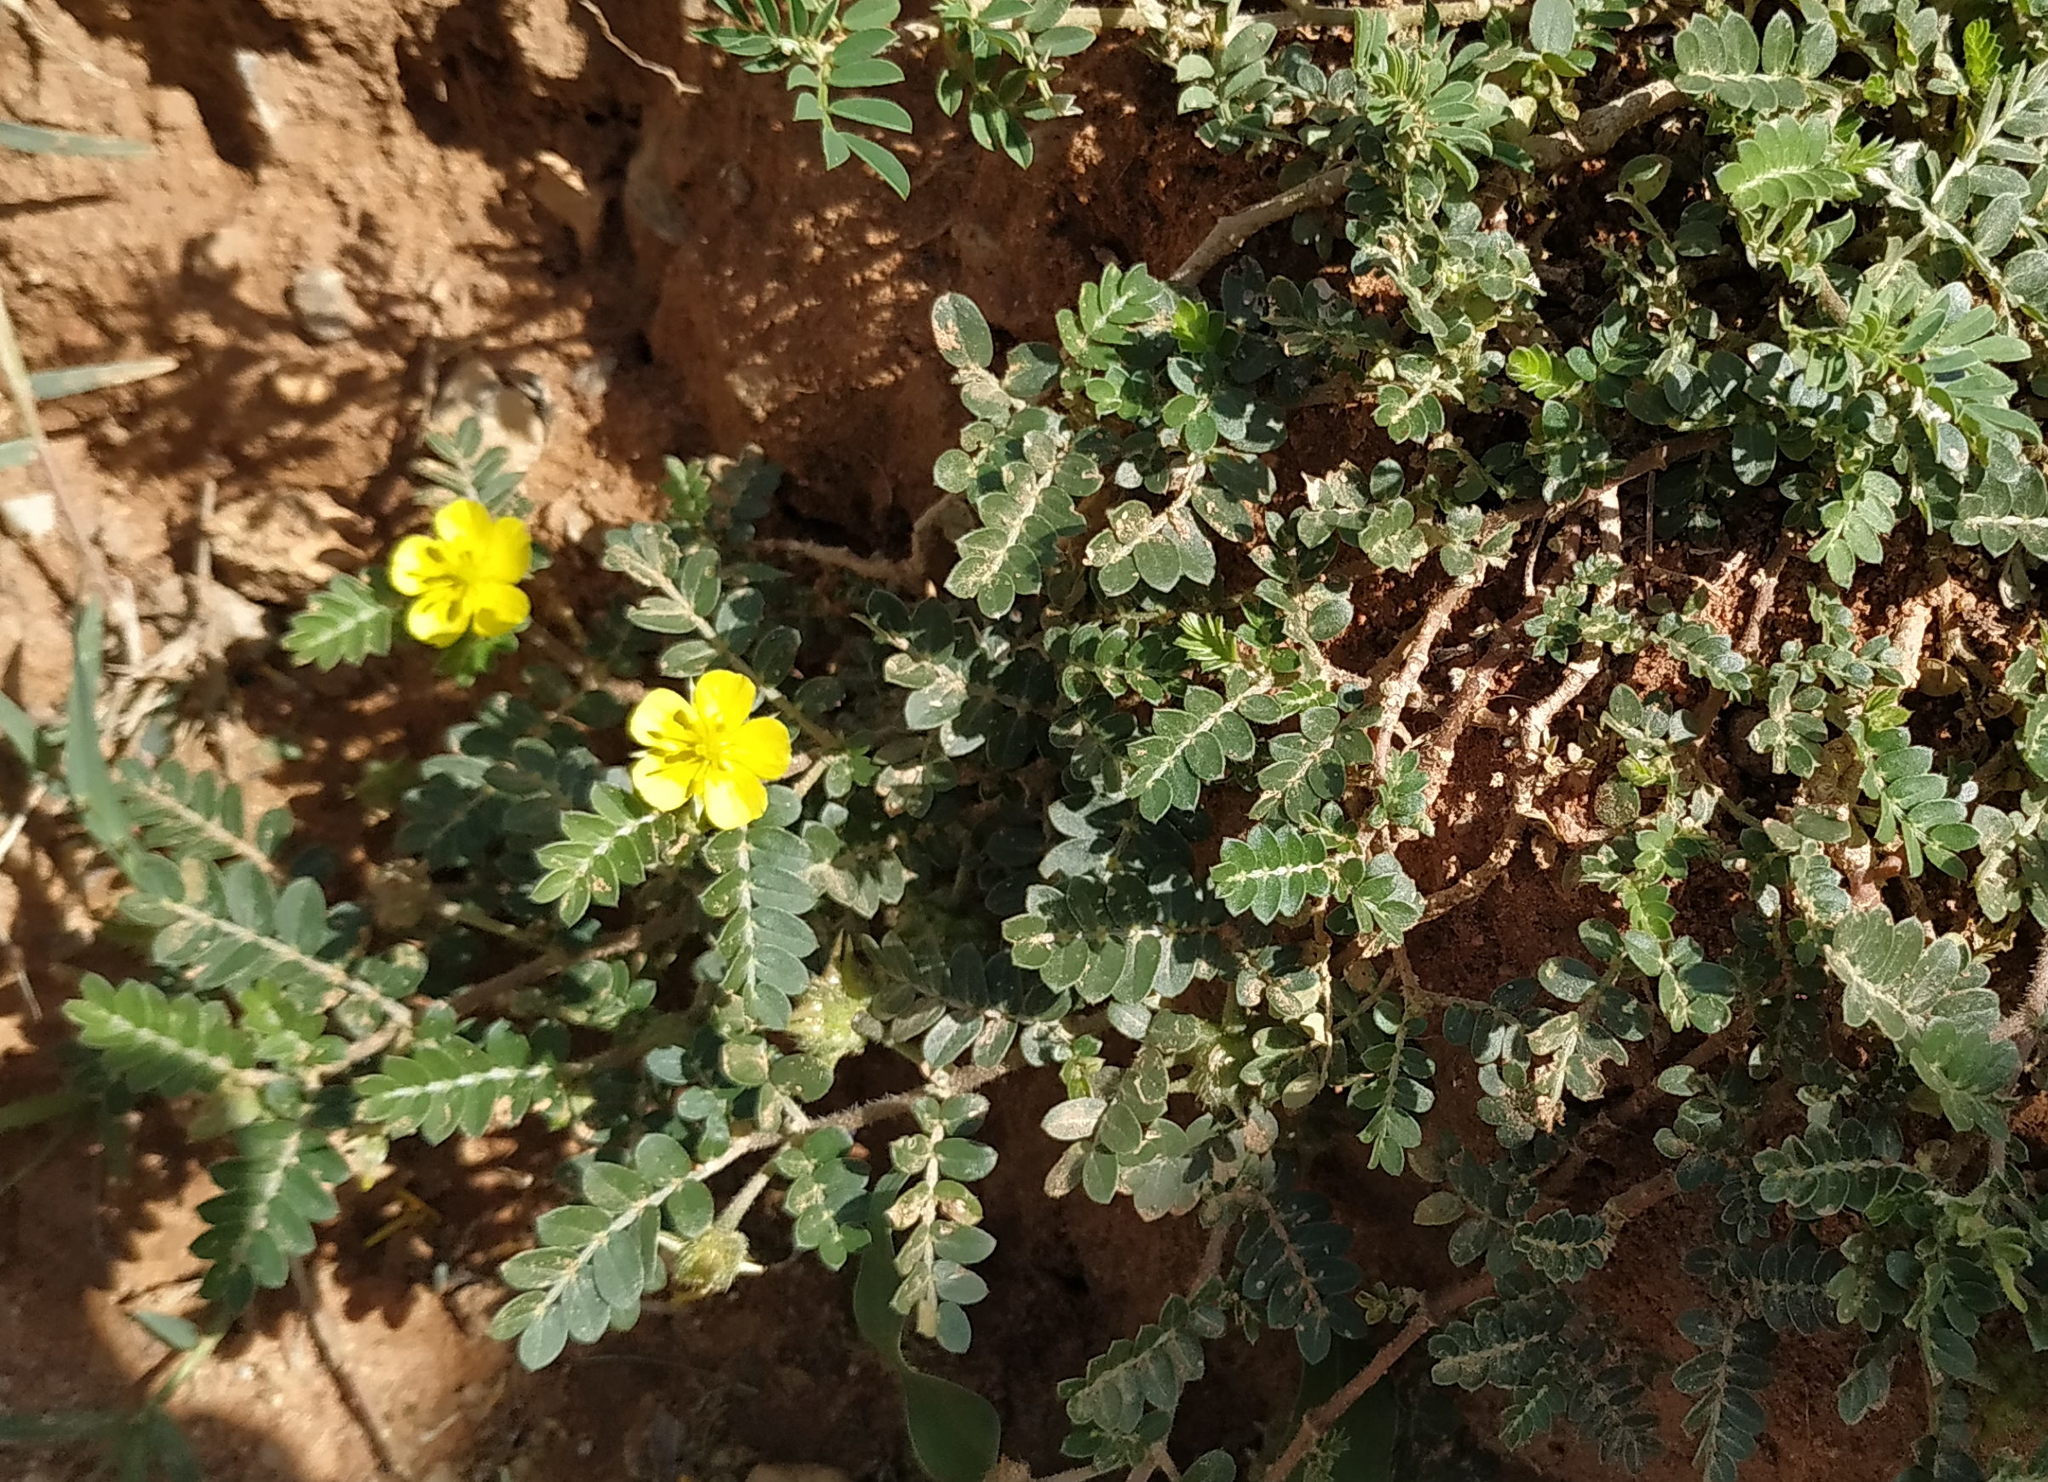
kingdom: Plantae
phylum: Tracheophyta
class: Magnoliopsida
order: Zygophyllales
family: Zygophyllaceae
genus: Tribulus
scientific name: Tribulus terrestris
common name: Puncturevine
